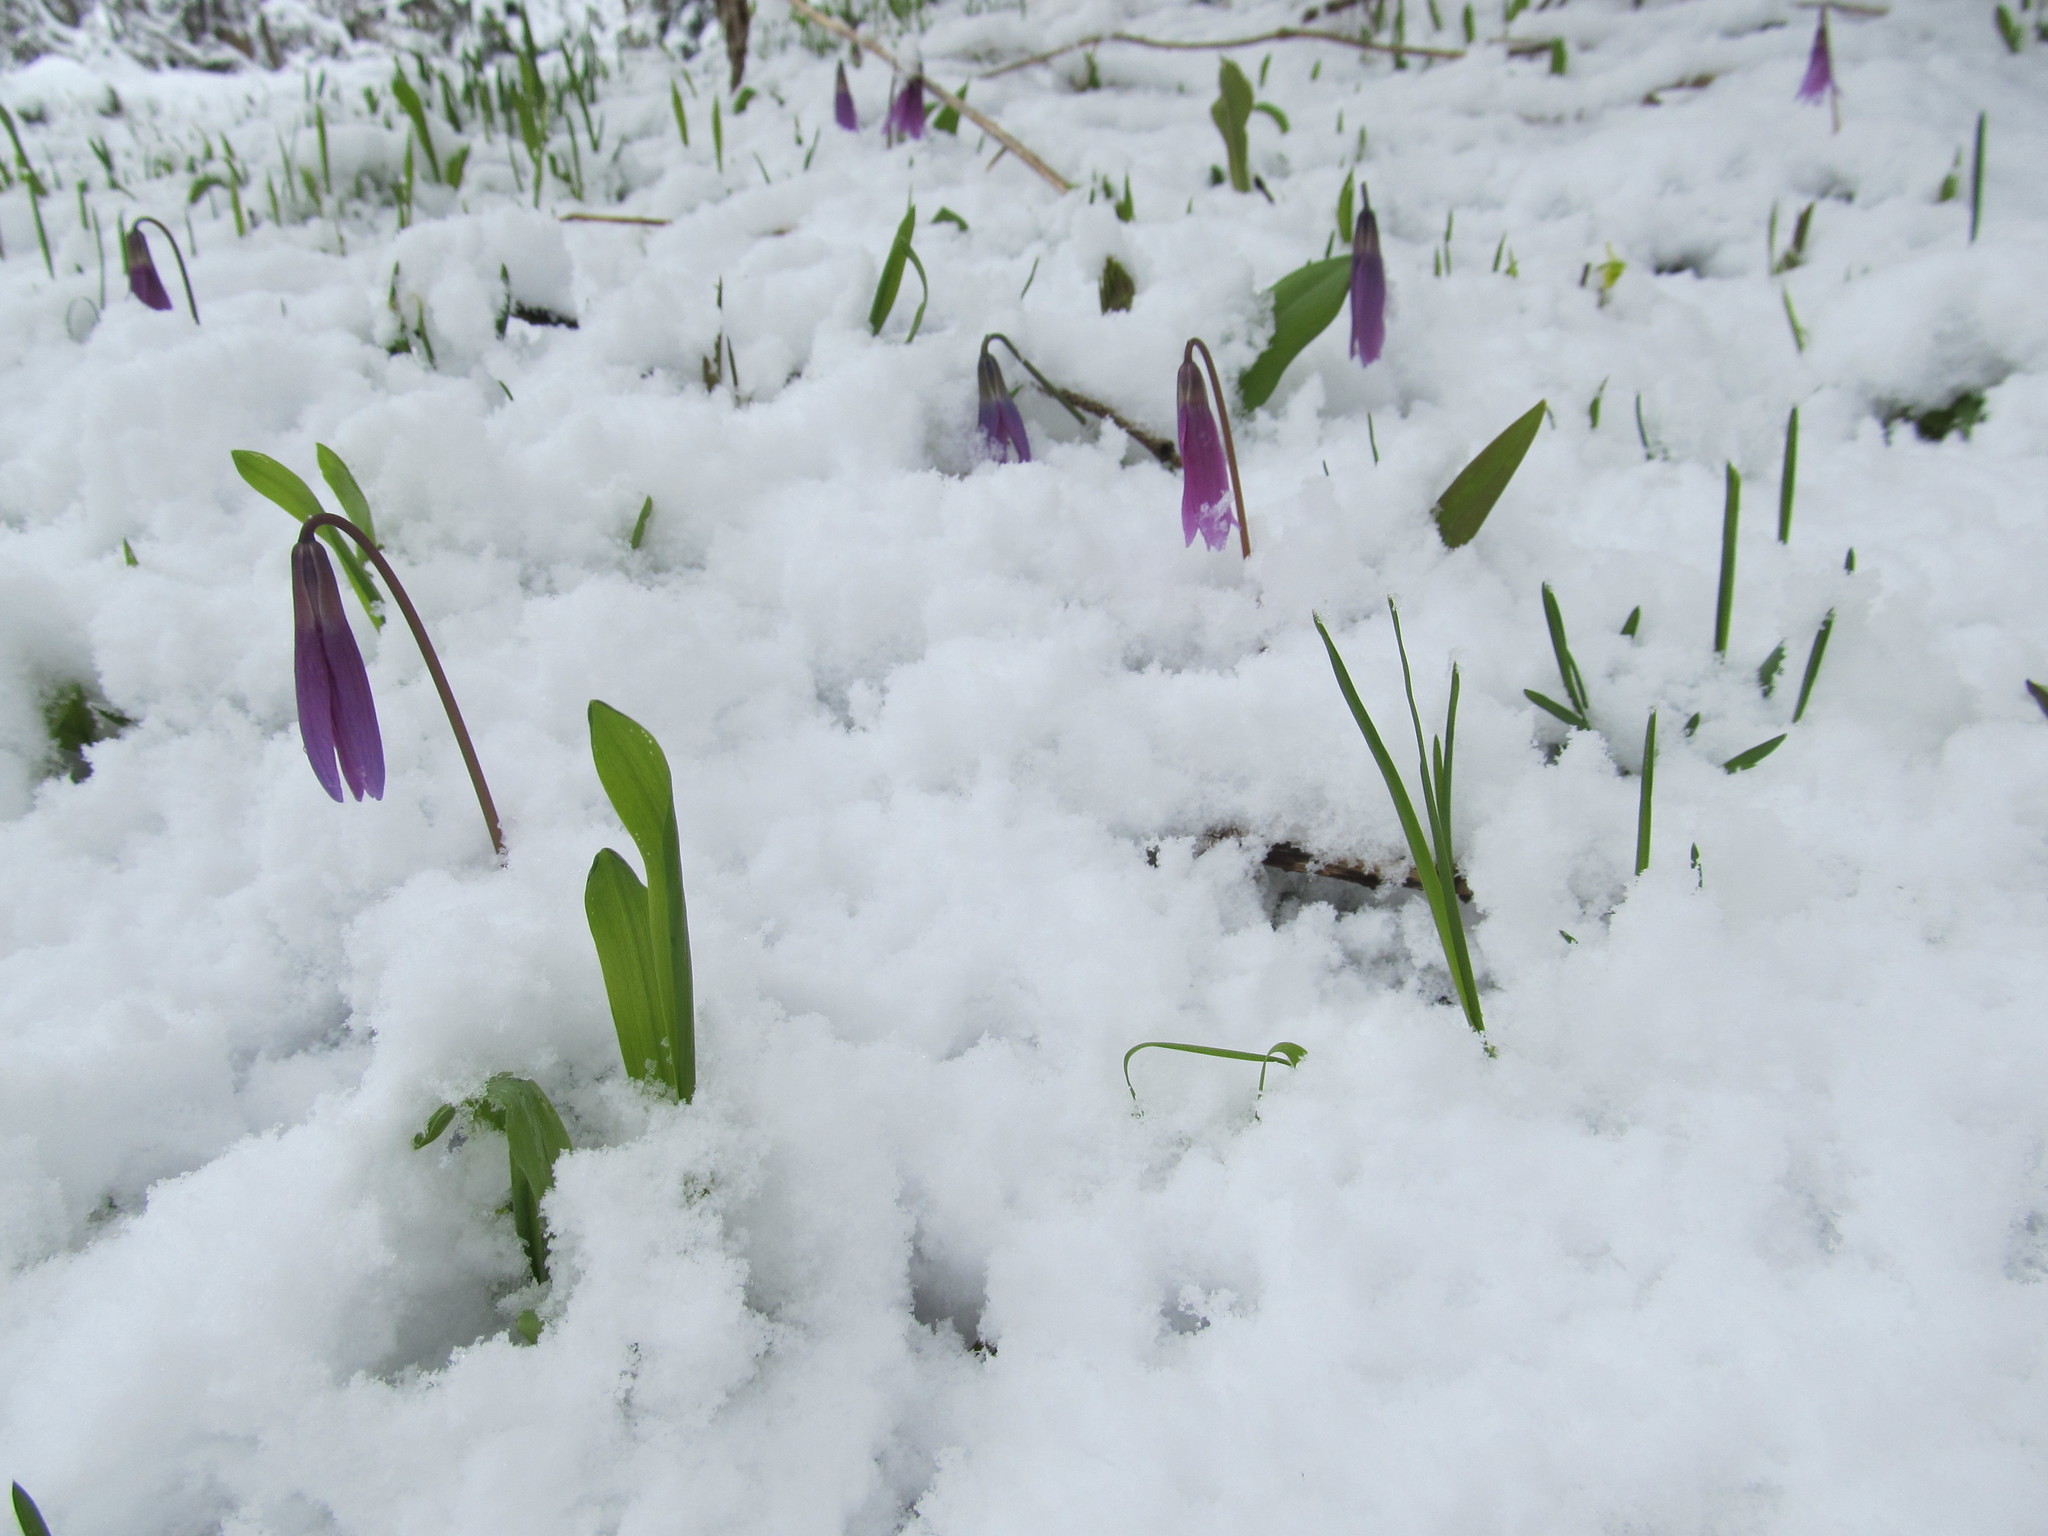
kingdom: Plantae
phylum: Tracheophyta
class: Liliopsida
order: Liliales
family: Liliaceae
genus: Erythronium
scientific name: Erythronium sibiricum
